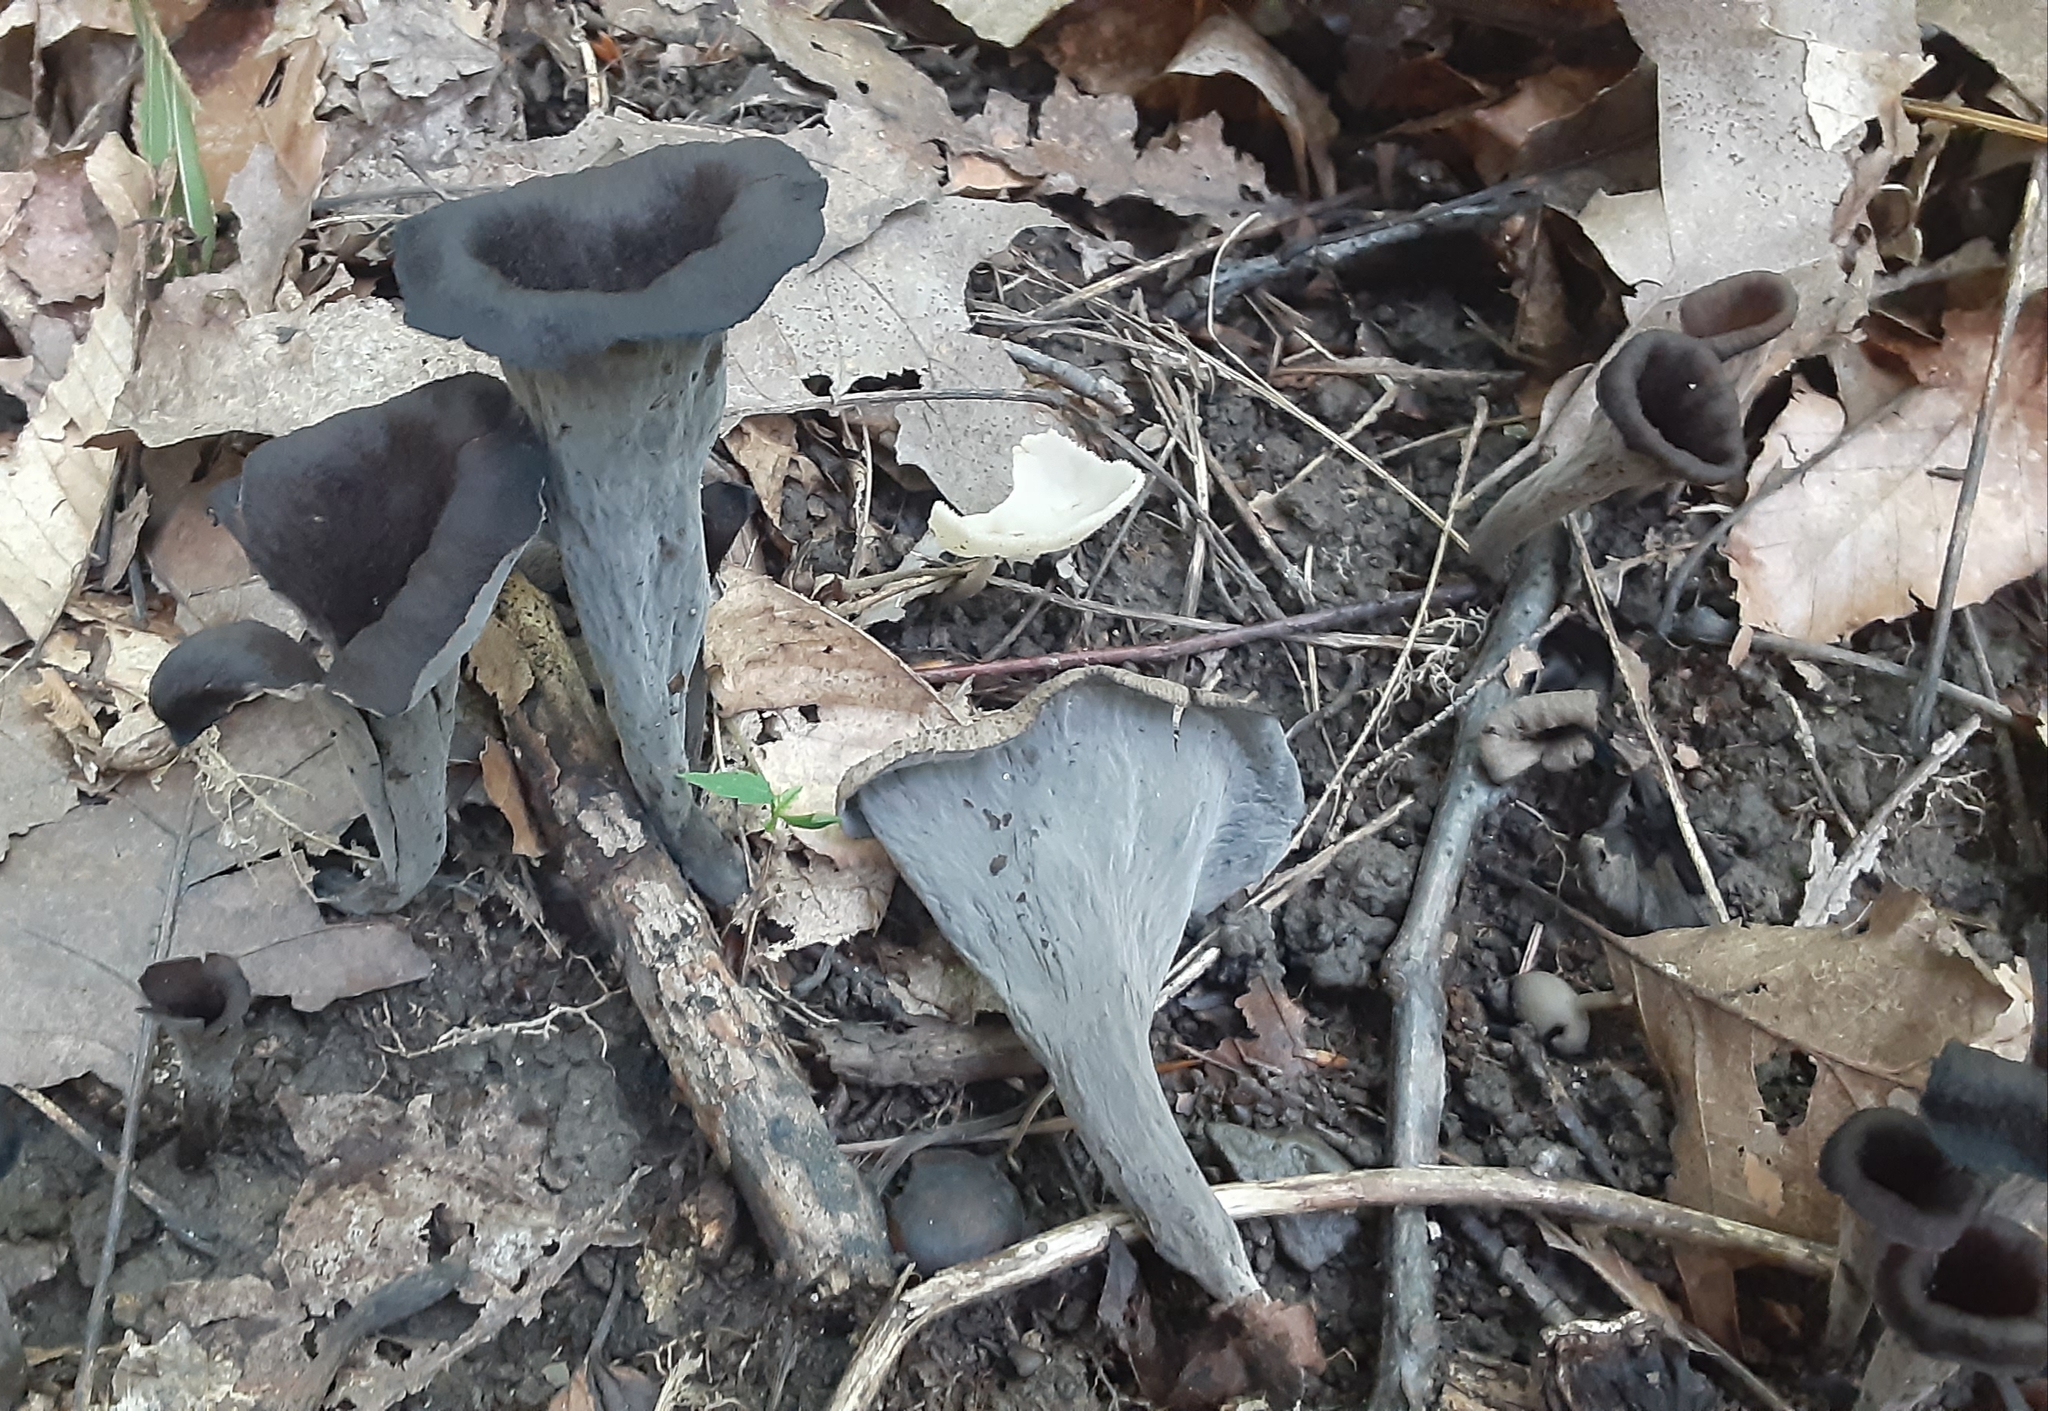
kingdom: Fungi
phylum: Basidiomycota
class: Agaricomycetes
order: Cantharellales
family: Hydnaceae
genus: Craterellus
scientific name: Craterellus cornucopioides
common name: Horn of plenty
